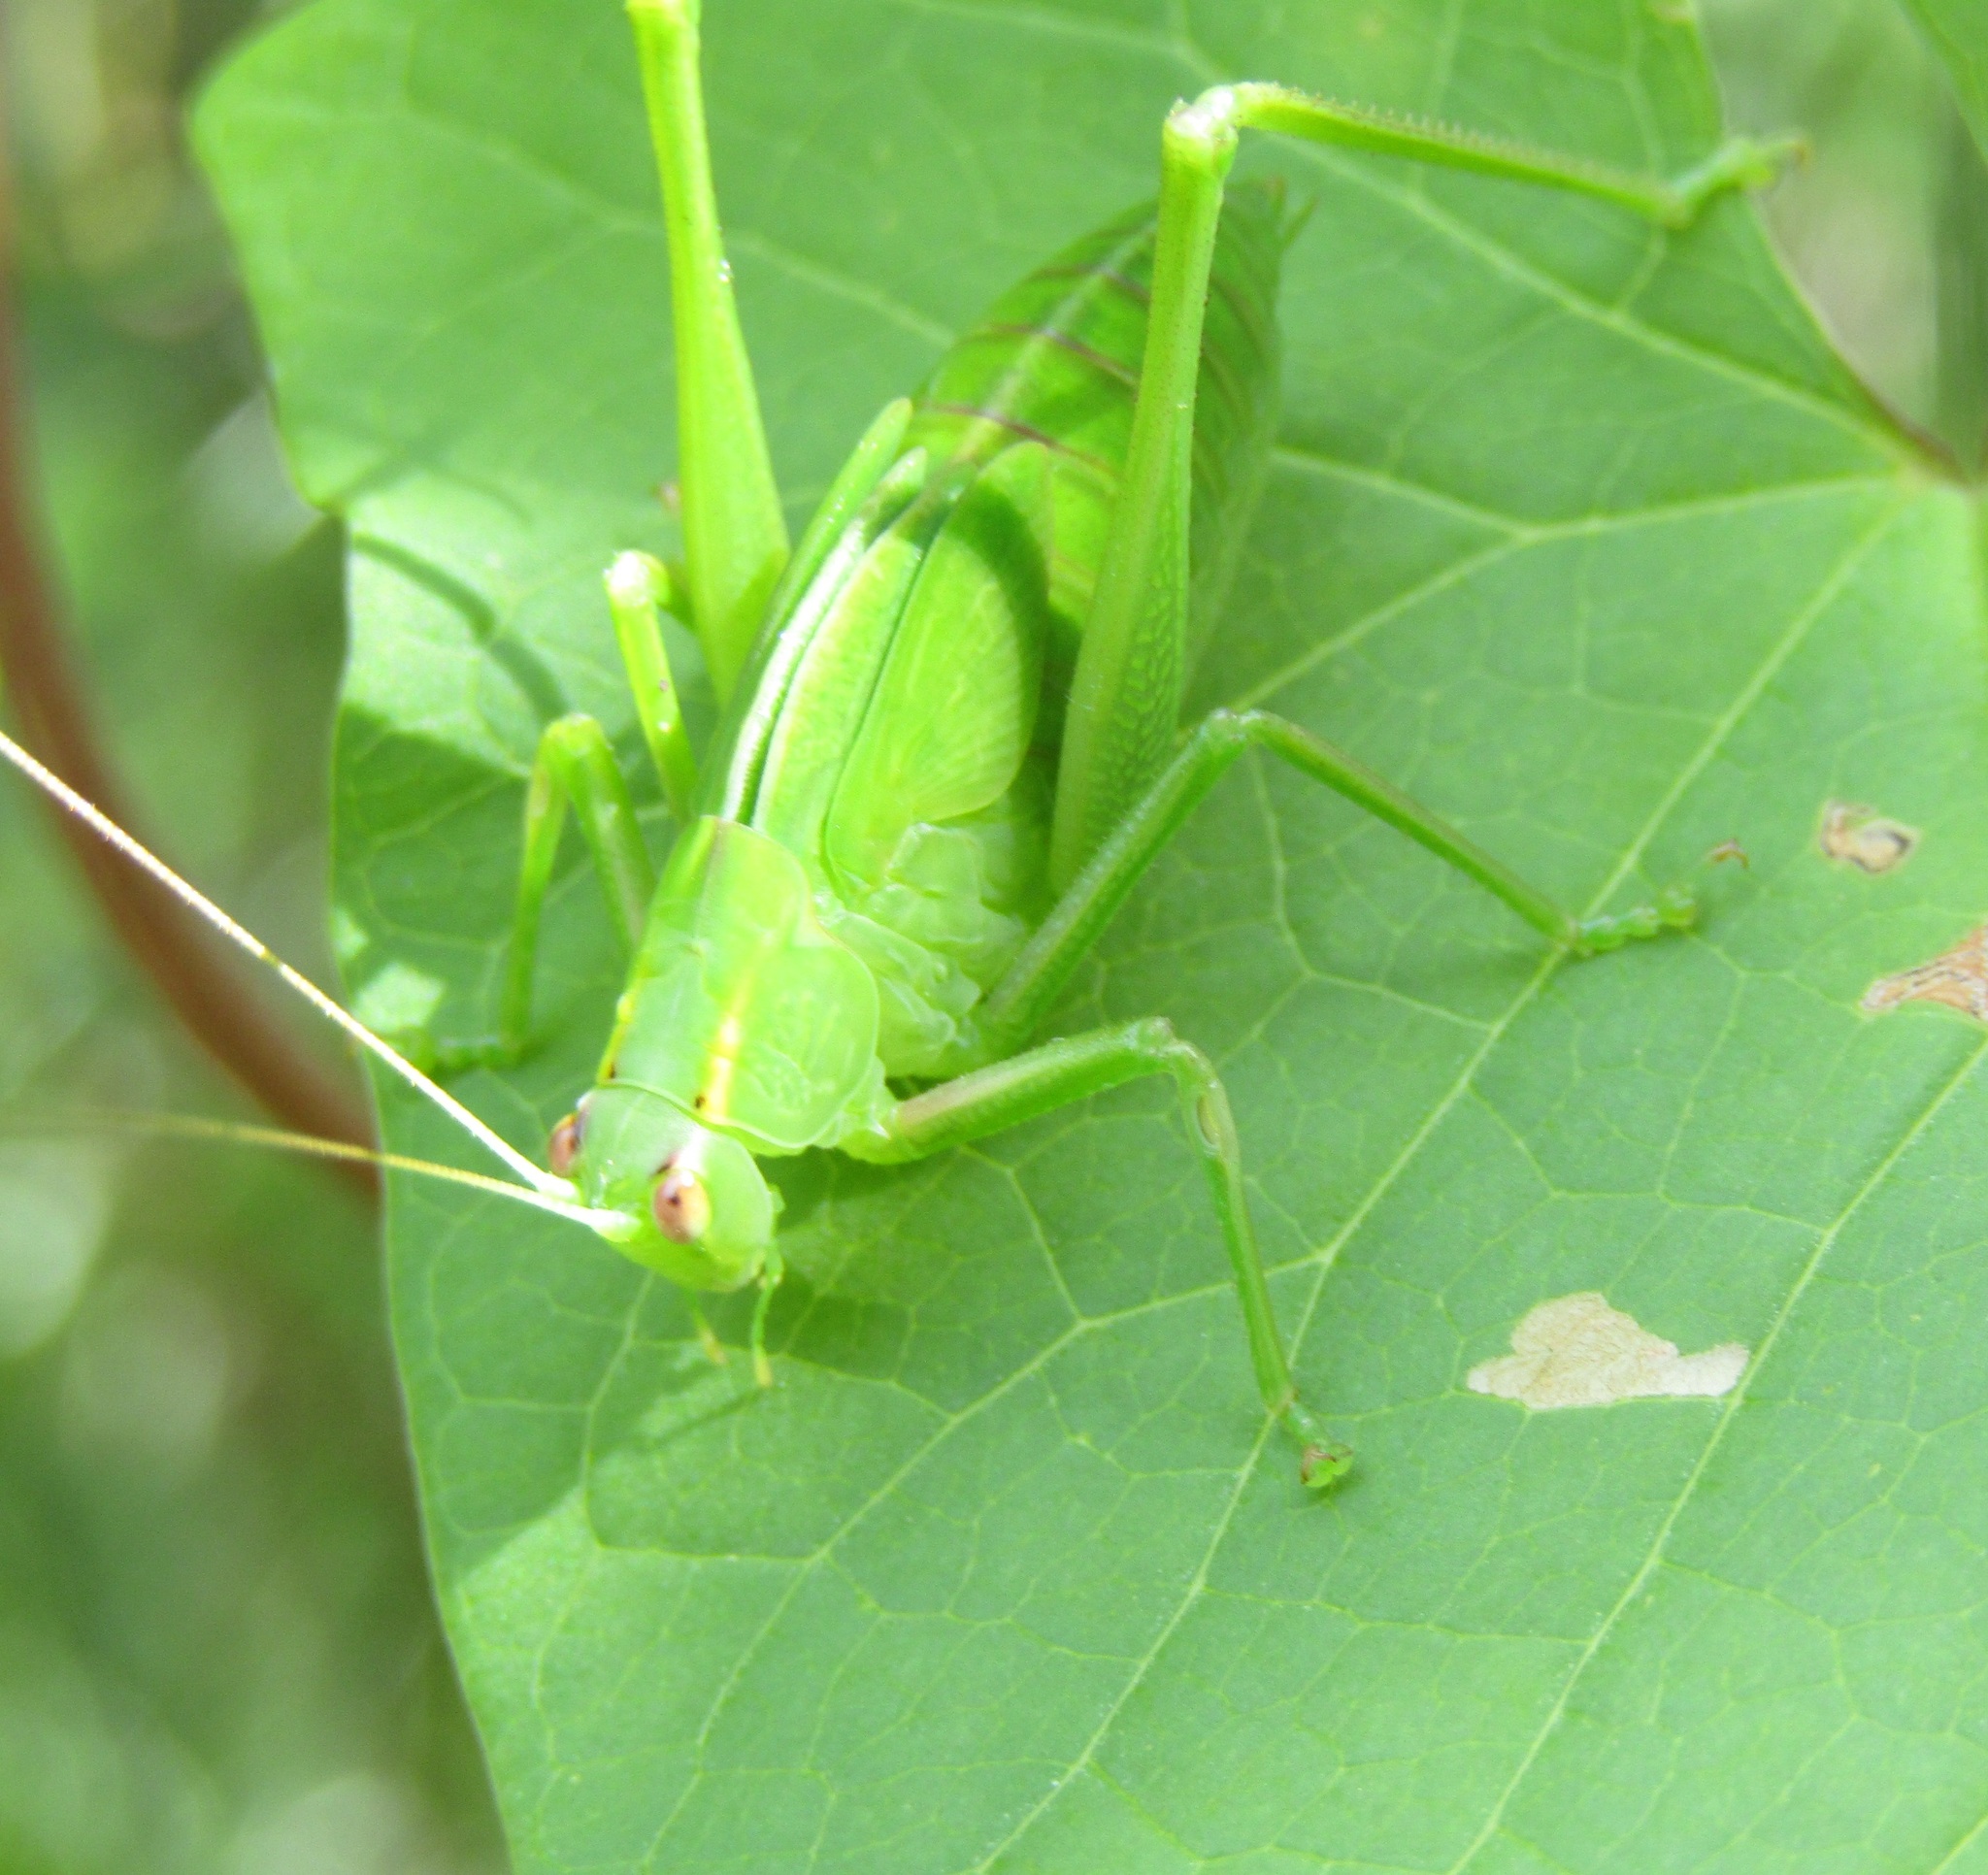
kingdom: Animalia
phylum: Arthropoda
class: Insecta
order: Orthoptera
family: Tettigoniidae
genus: Caedicia
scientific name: Caedicia simplex
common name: Common garden katydid
